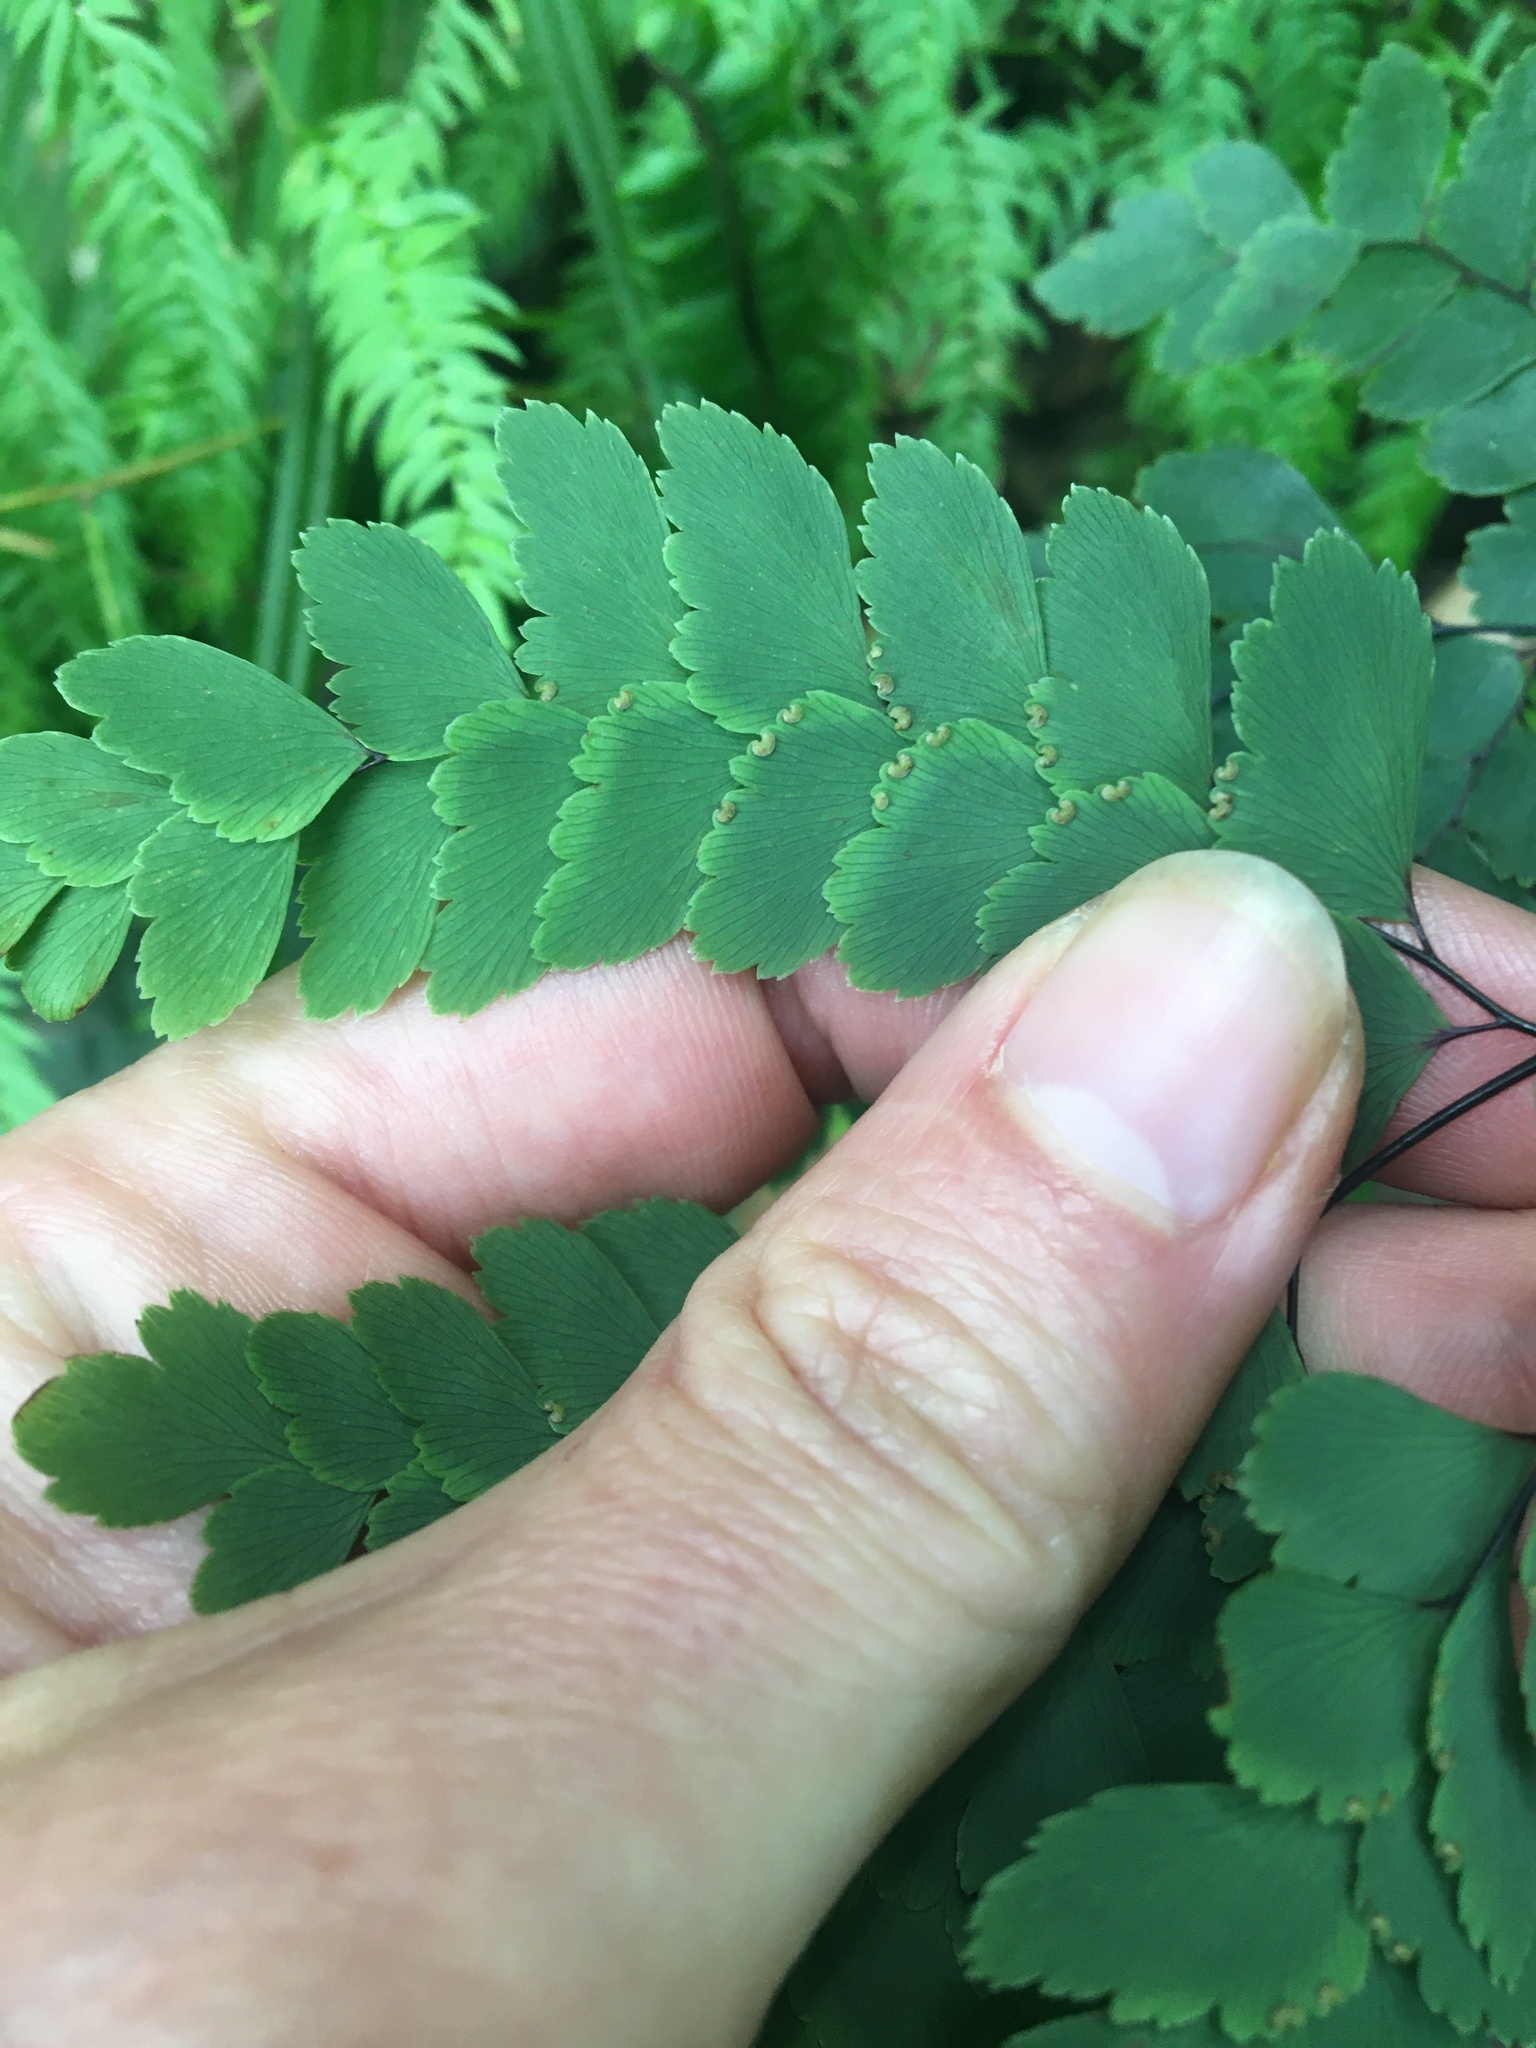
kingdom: Plantae
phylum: Tracheophyta
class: Polypodiopsida
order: Polypodiales
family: Pteridaceae
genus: Adiantum
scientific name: Adiantum cunninghamii
